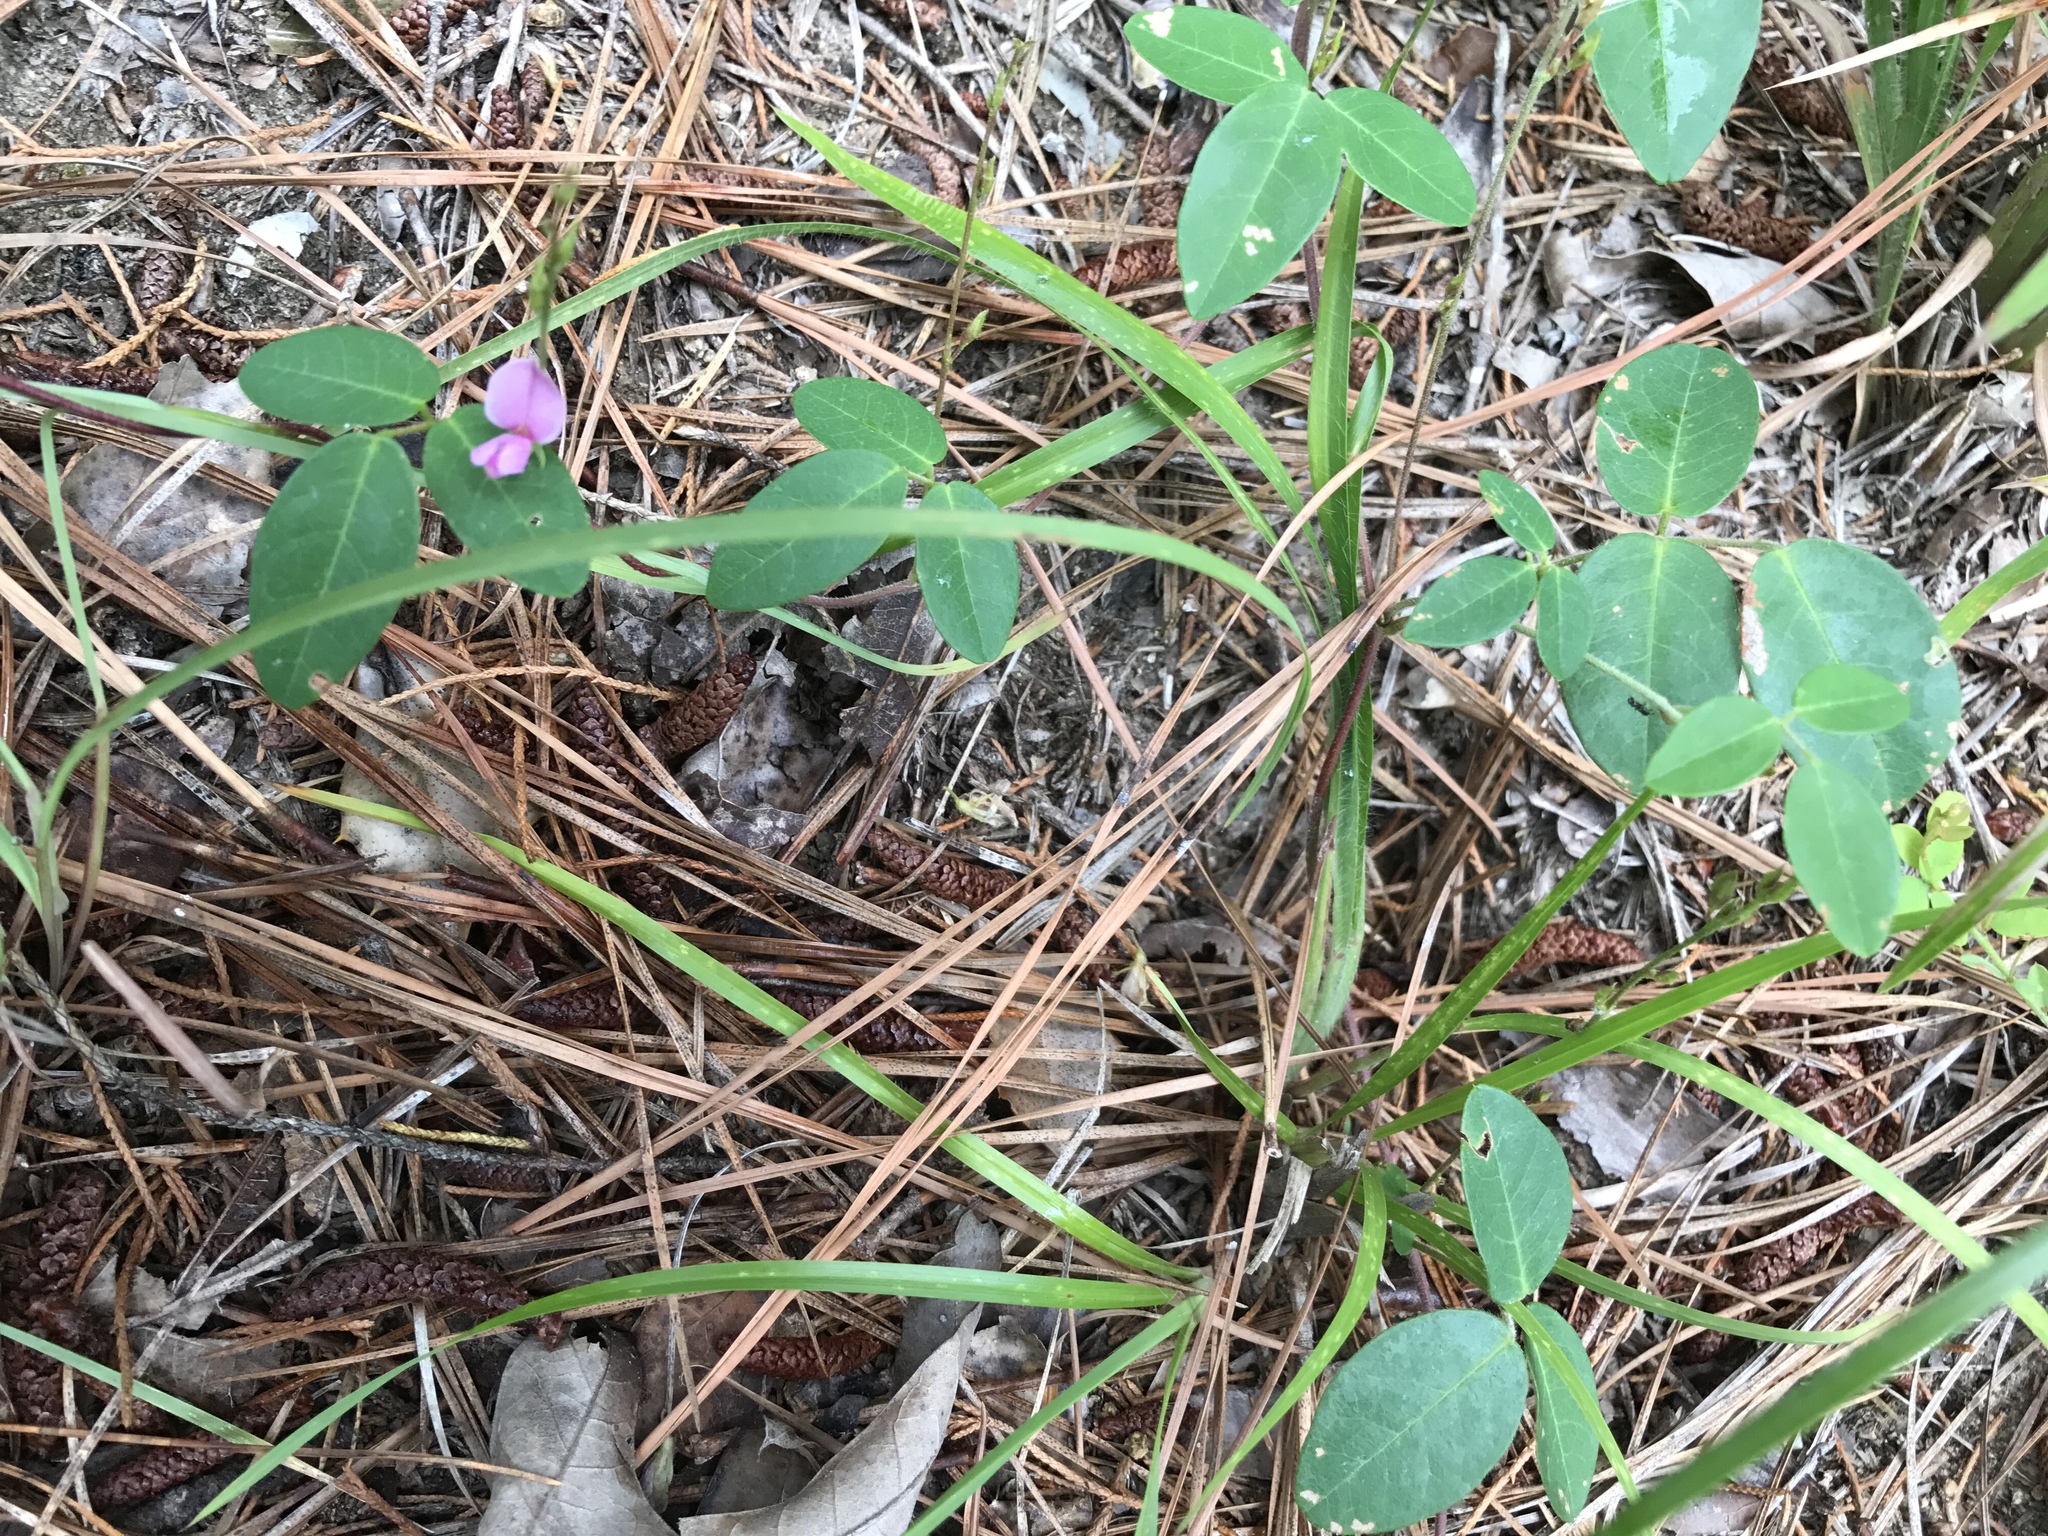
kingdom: Plantae
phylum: Tracheophyta
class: Magnoliopsida
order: Fabales
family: Fabaceae
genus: Galactia
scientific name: Galactia regularis
